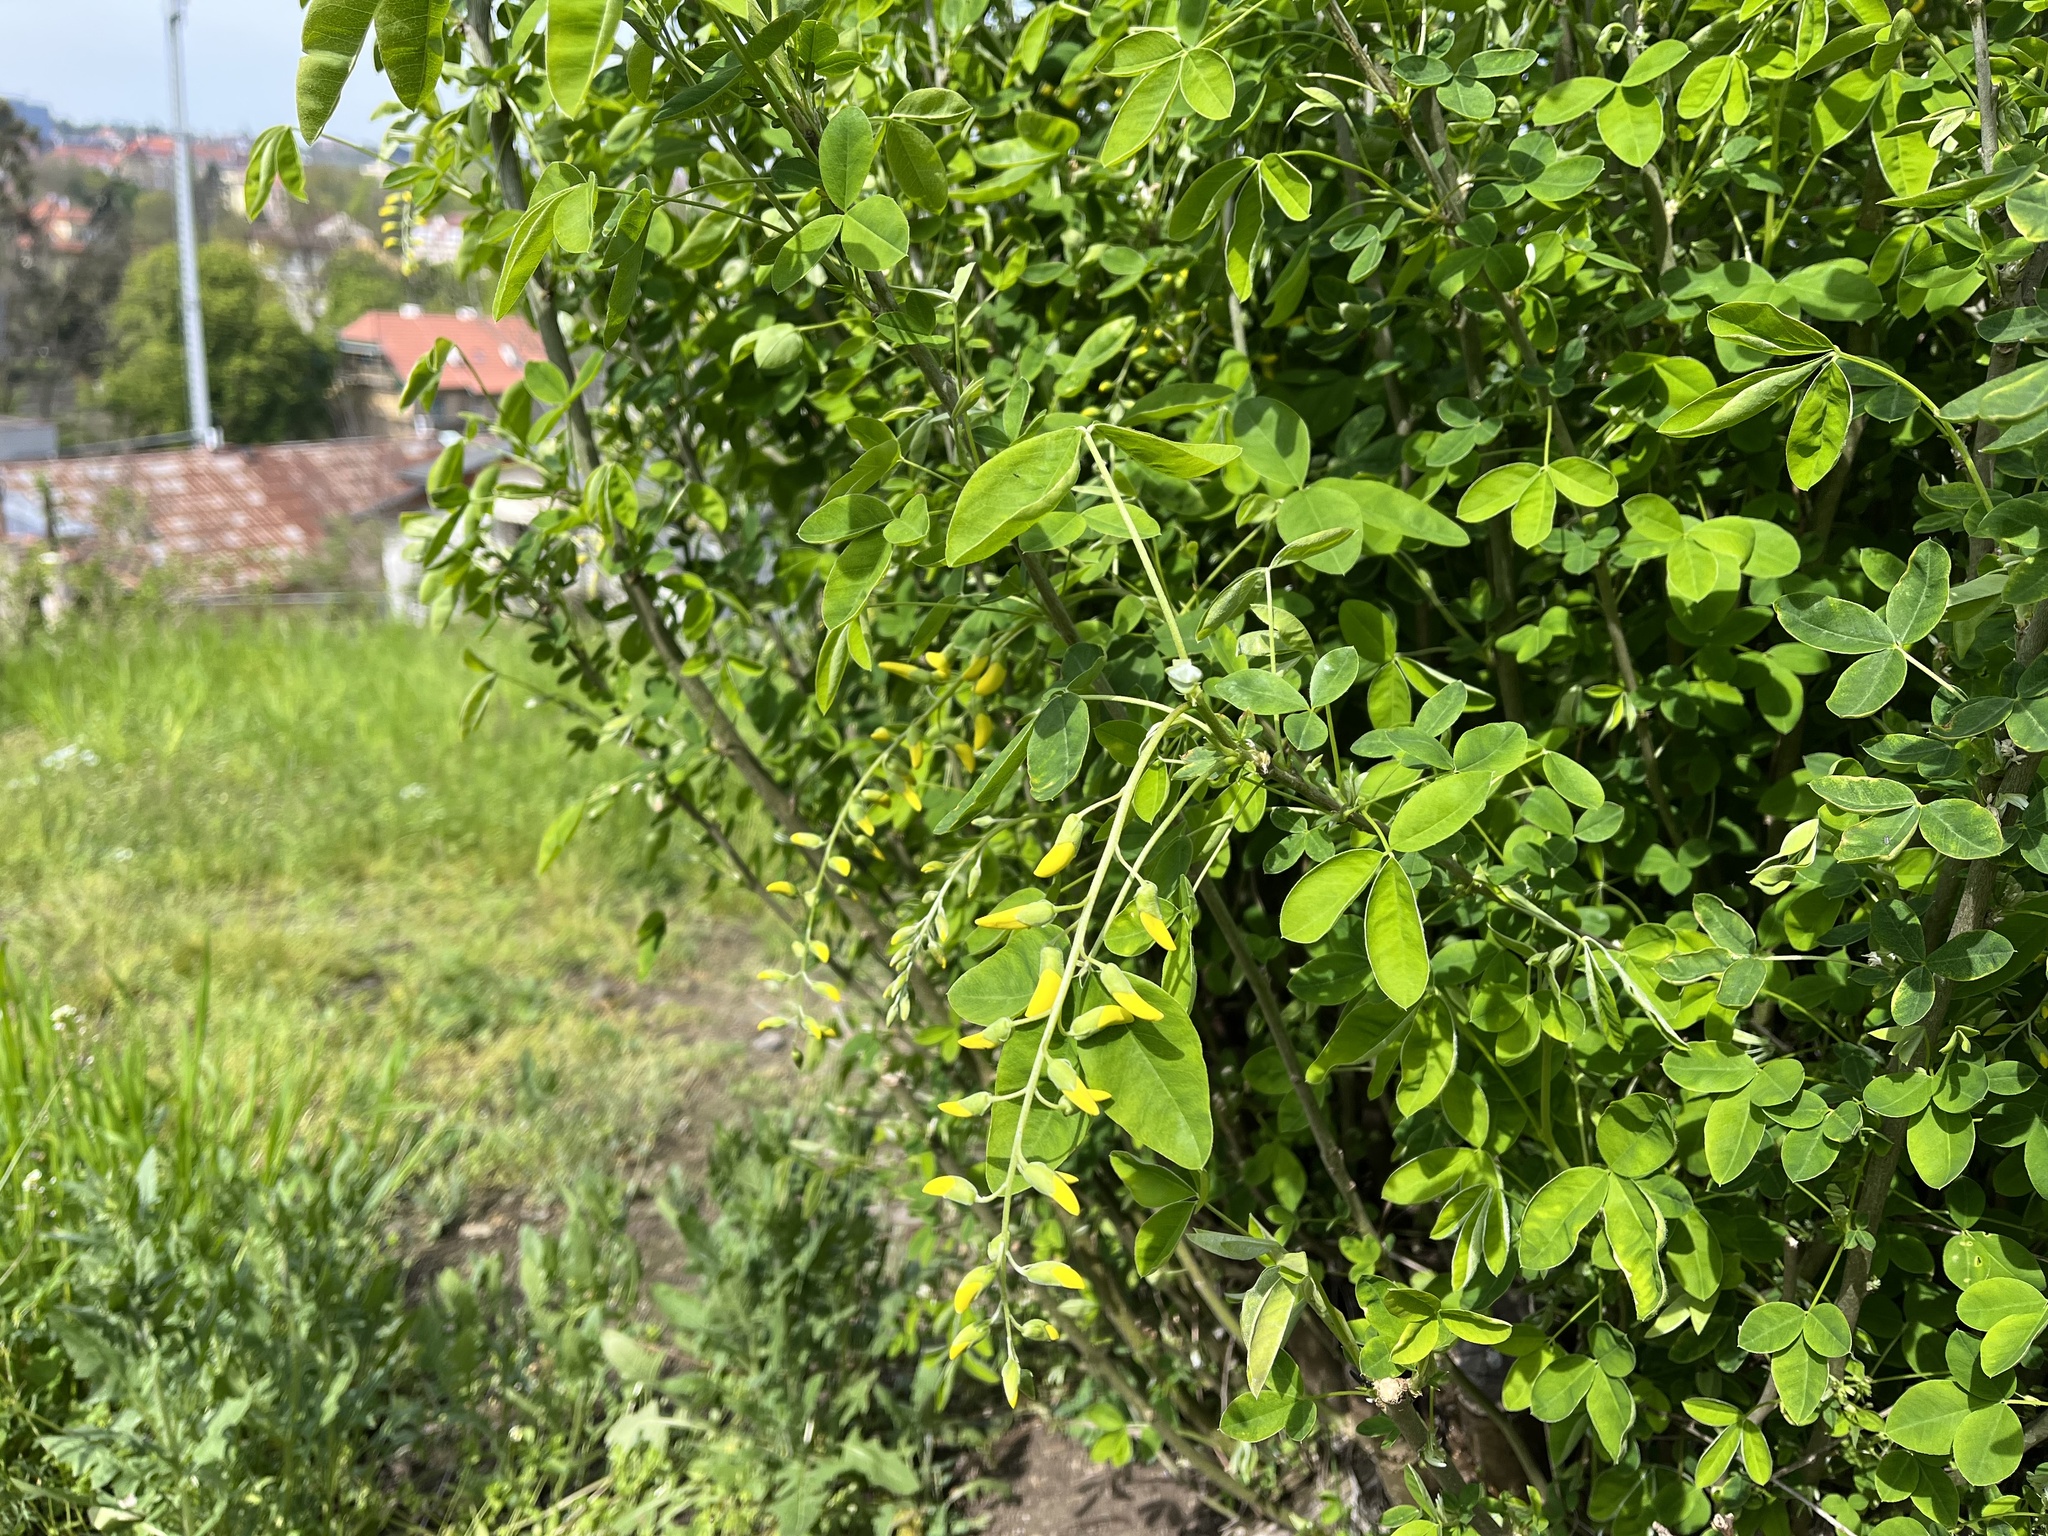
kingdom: Plantae
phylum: Tracheophyta
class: Magnoliopsida
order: Fabales
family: Fabaceae
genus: Laburnum
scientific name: Laburnum anagyroides
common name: Laburnum
